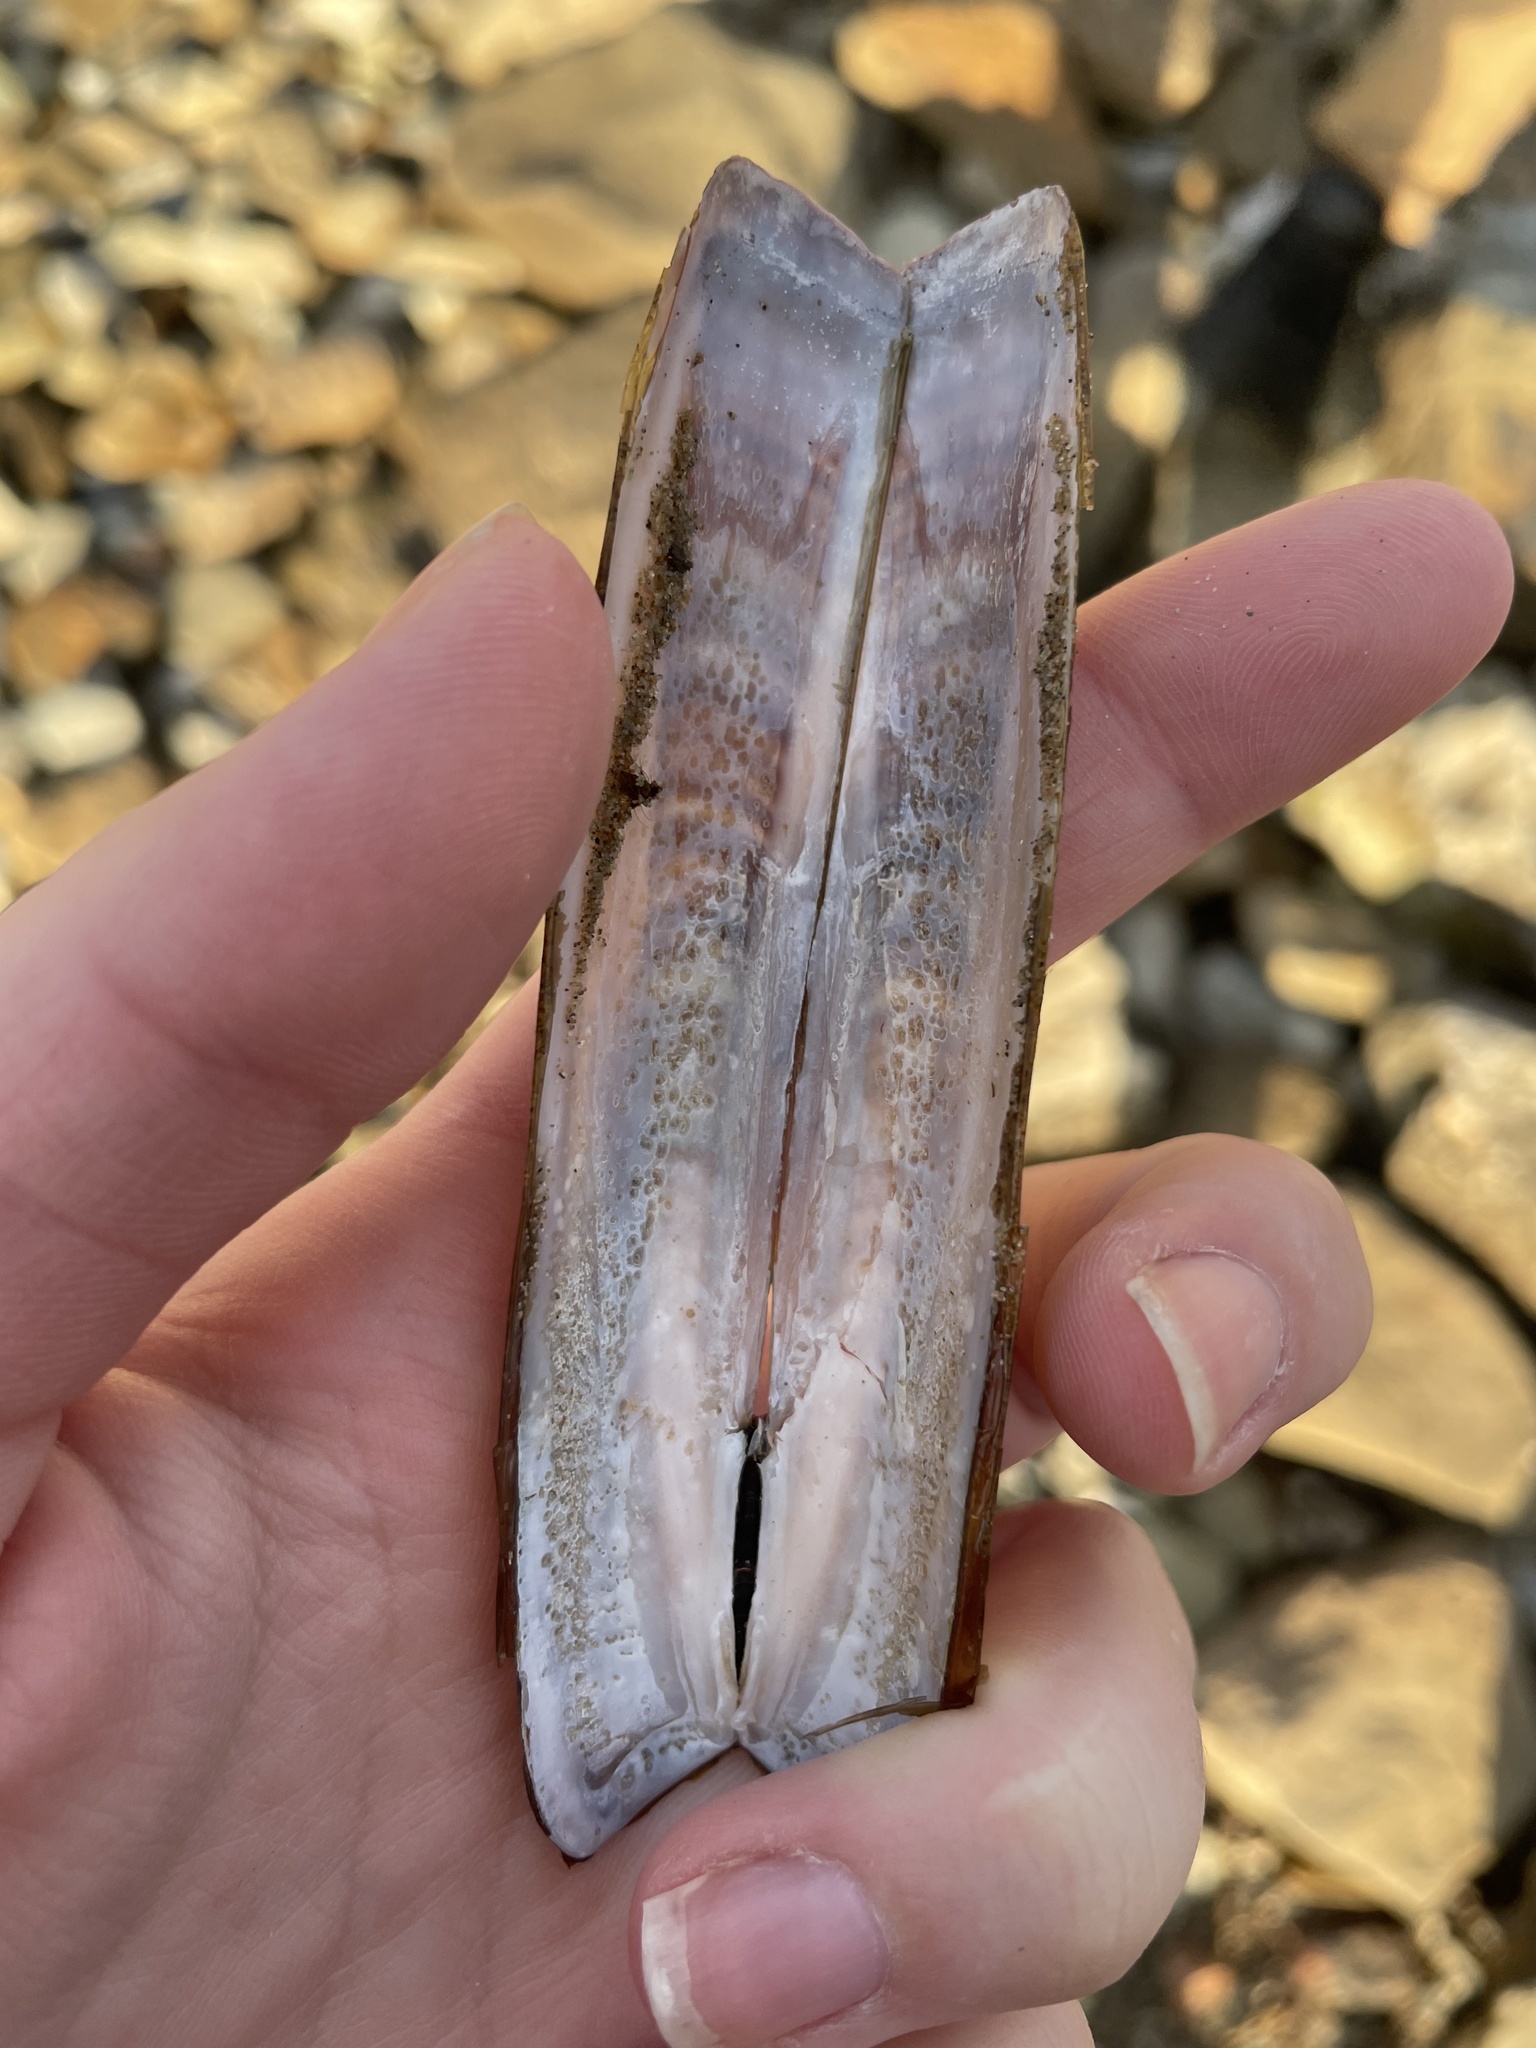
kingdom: Animalia
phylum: Mollusca
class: Bivalvia
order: Adapedonta
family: Pharidae
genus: Ensis
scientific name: Ensis leei
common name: American jack knife clam
